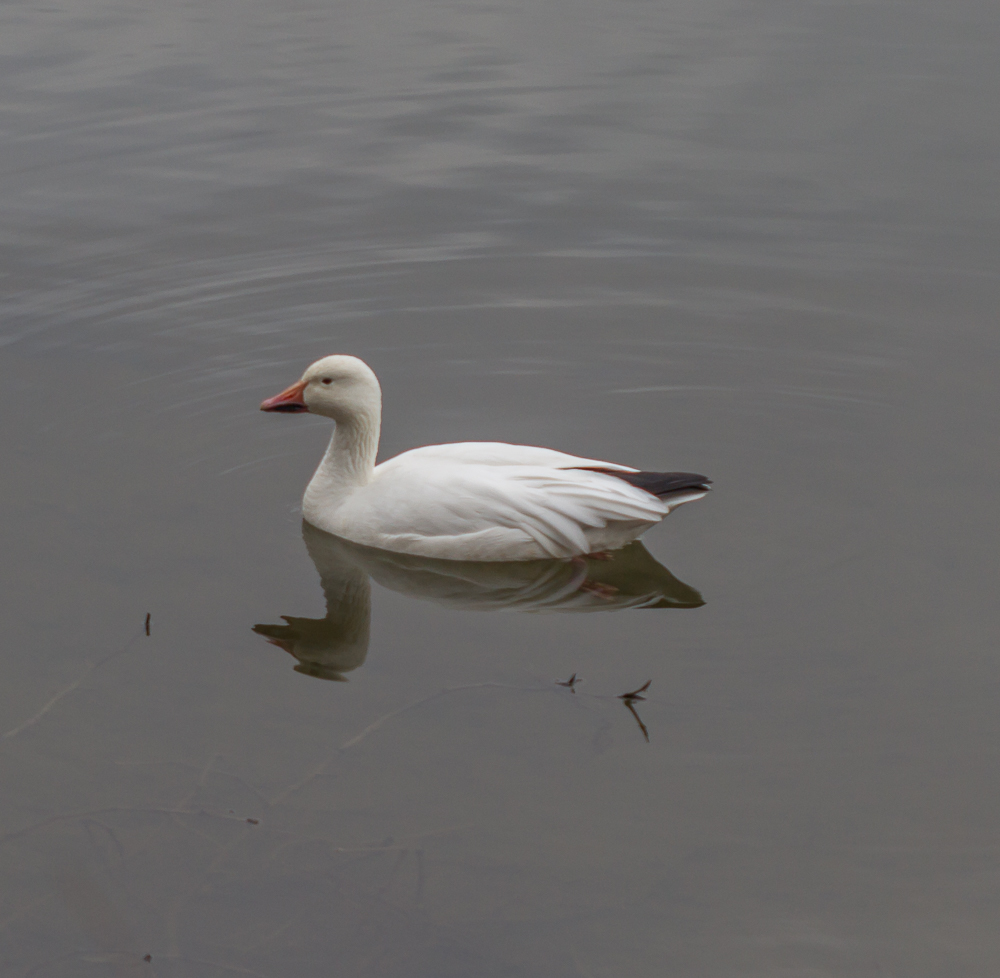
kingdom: Animalia
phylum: Chordata
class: Aves
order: Anseriformes
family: Anatidae
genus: Anser
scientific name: Anser caerulescens
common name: Snow goose
